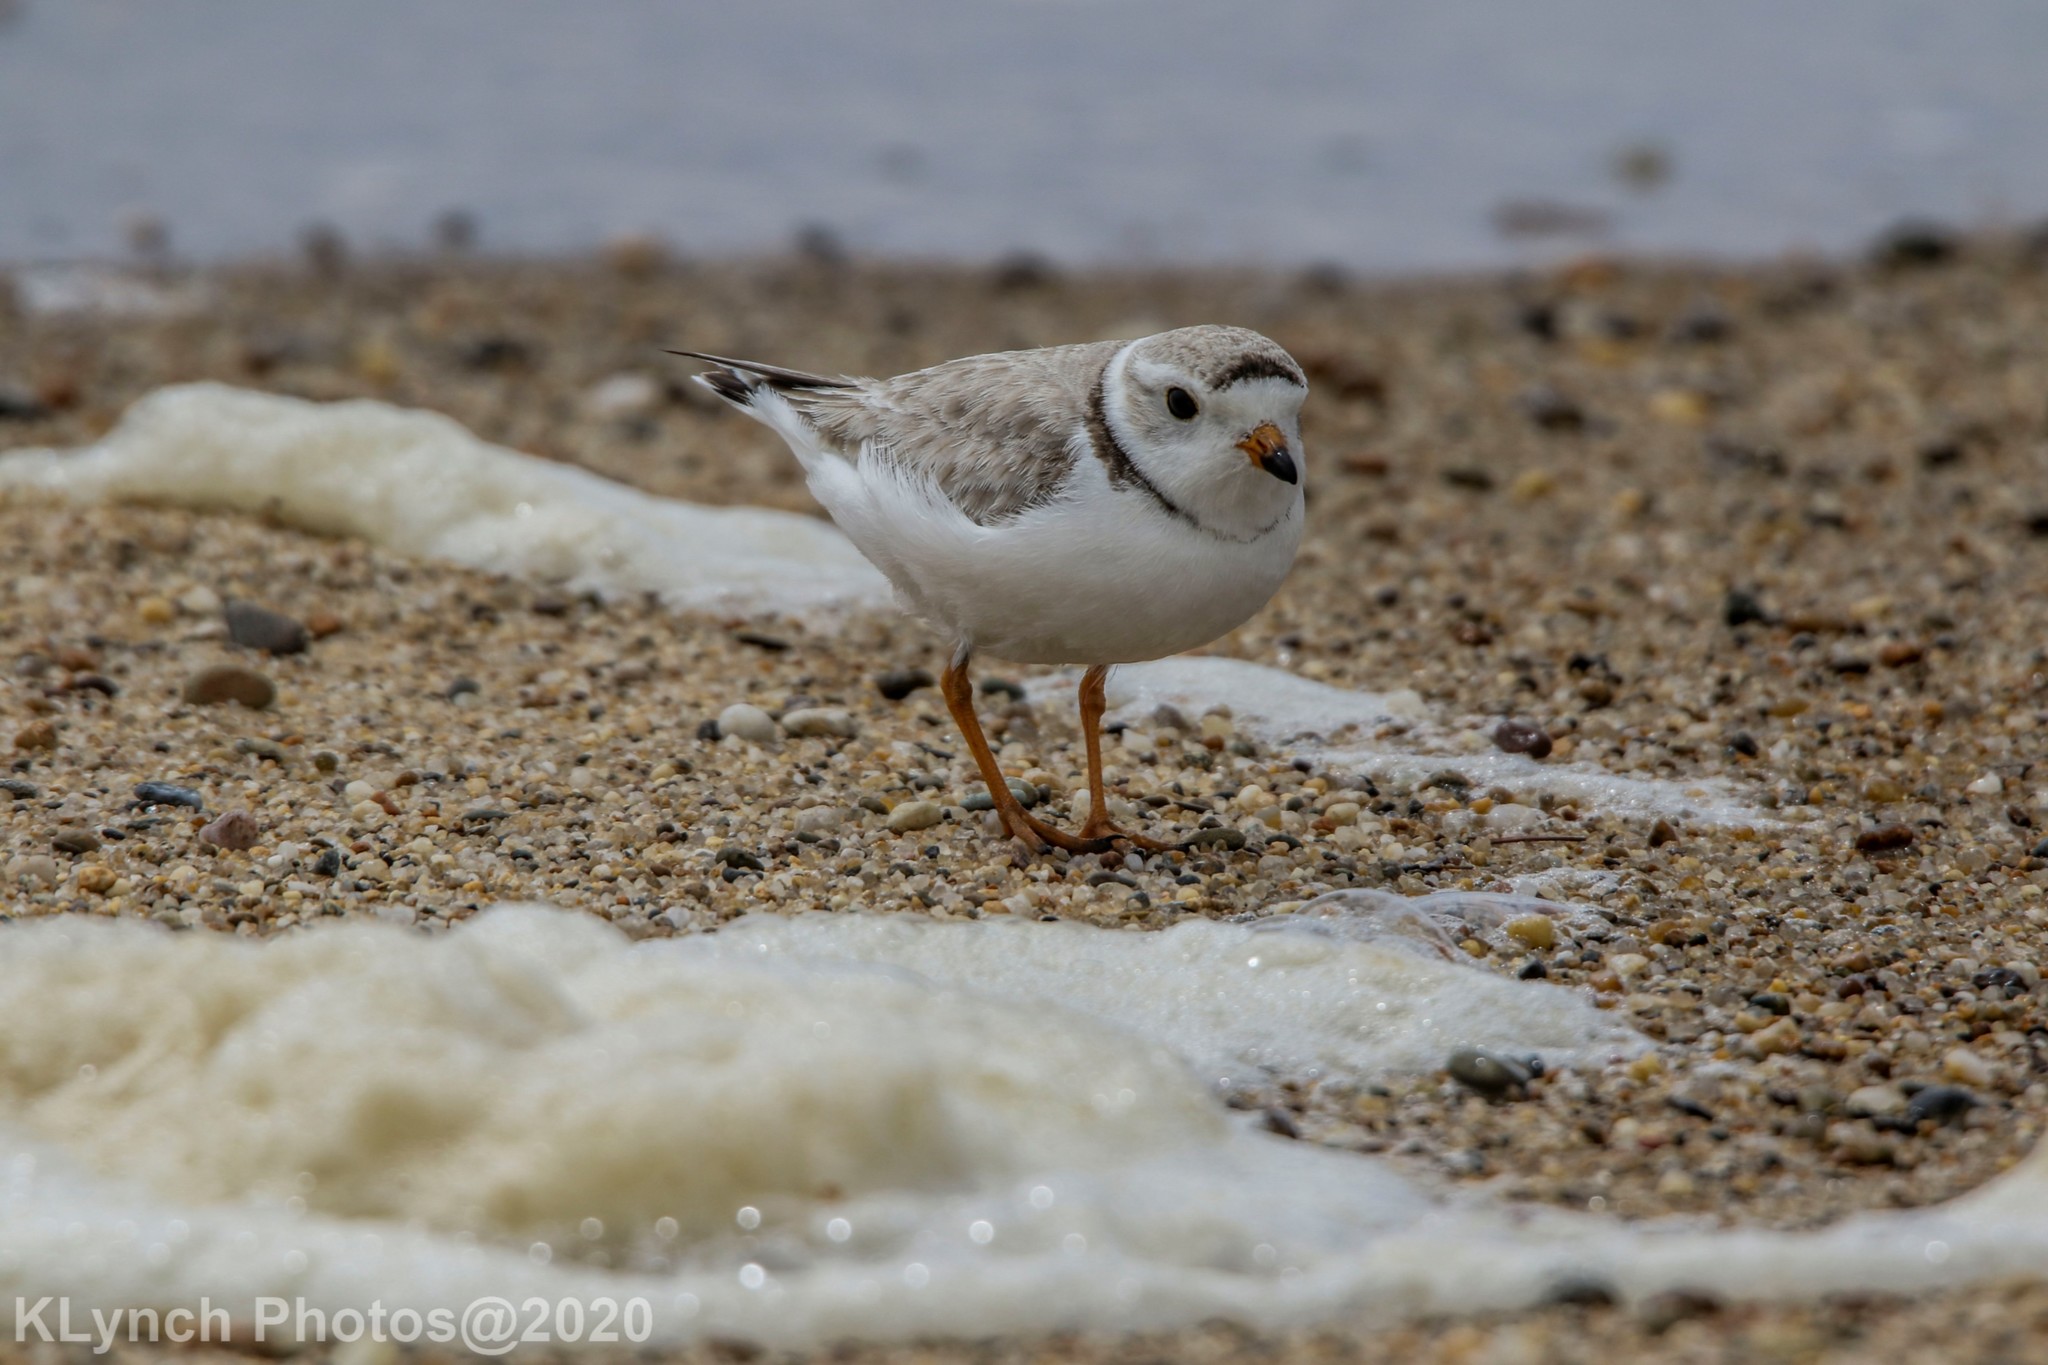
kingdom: Animalia
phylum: Chordata
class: Aves
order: Charadriiformes
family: Charadriidae
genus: Charadrius
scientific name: Charadrius melodus
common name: Piping plover
